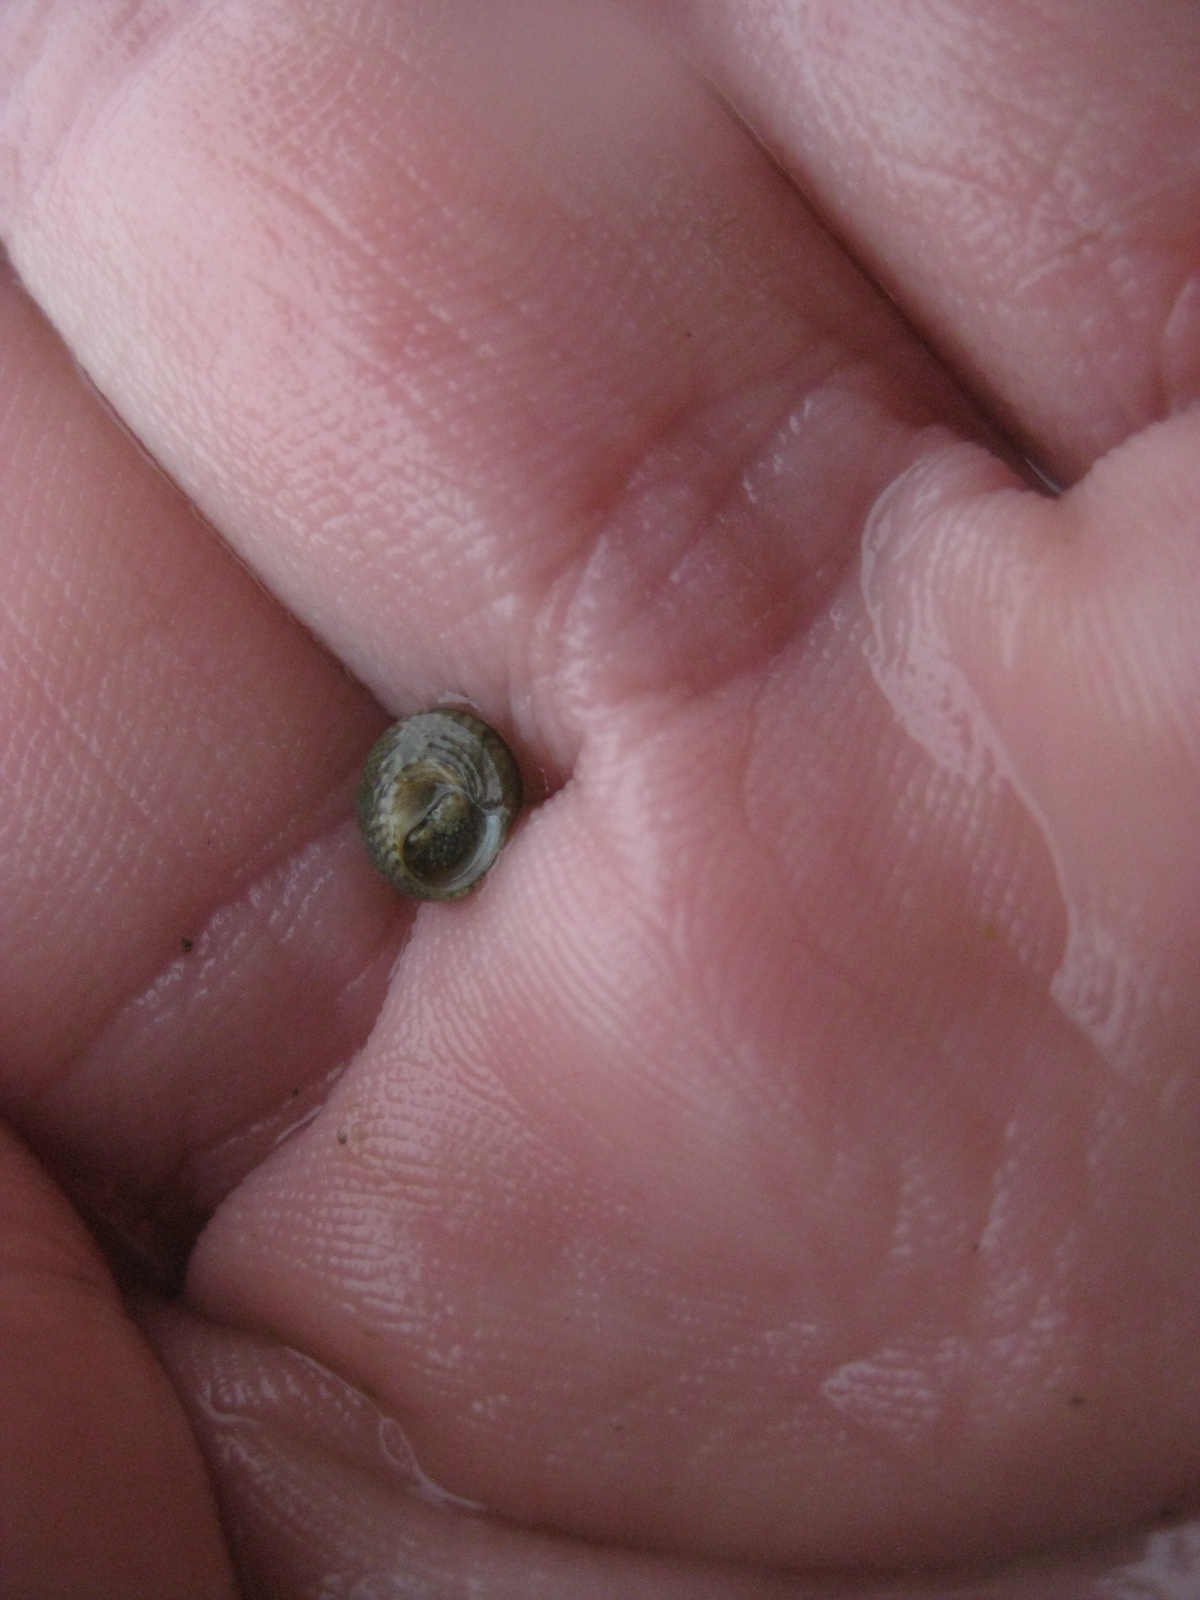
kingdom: Animalia
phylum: Mollusca
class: Gastropoda
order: Trochida
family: Trochidae
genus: Coelotrochus
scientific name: Coelotrochus oppressus
